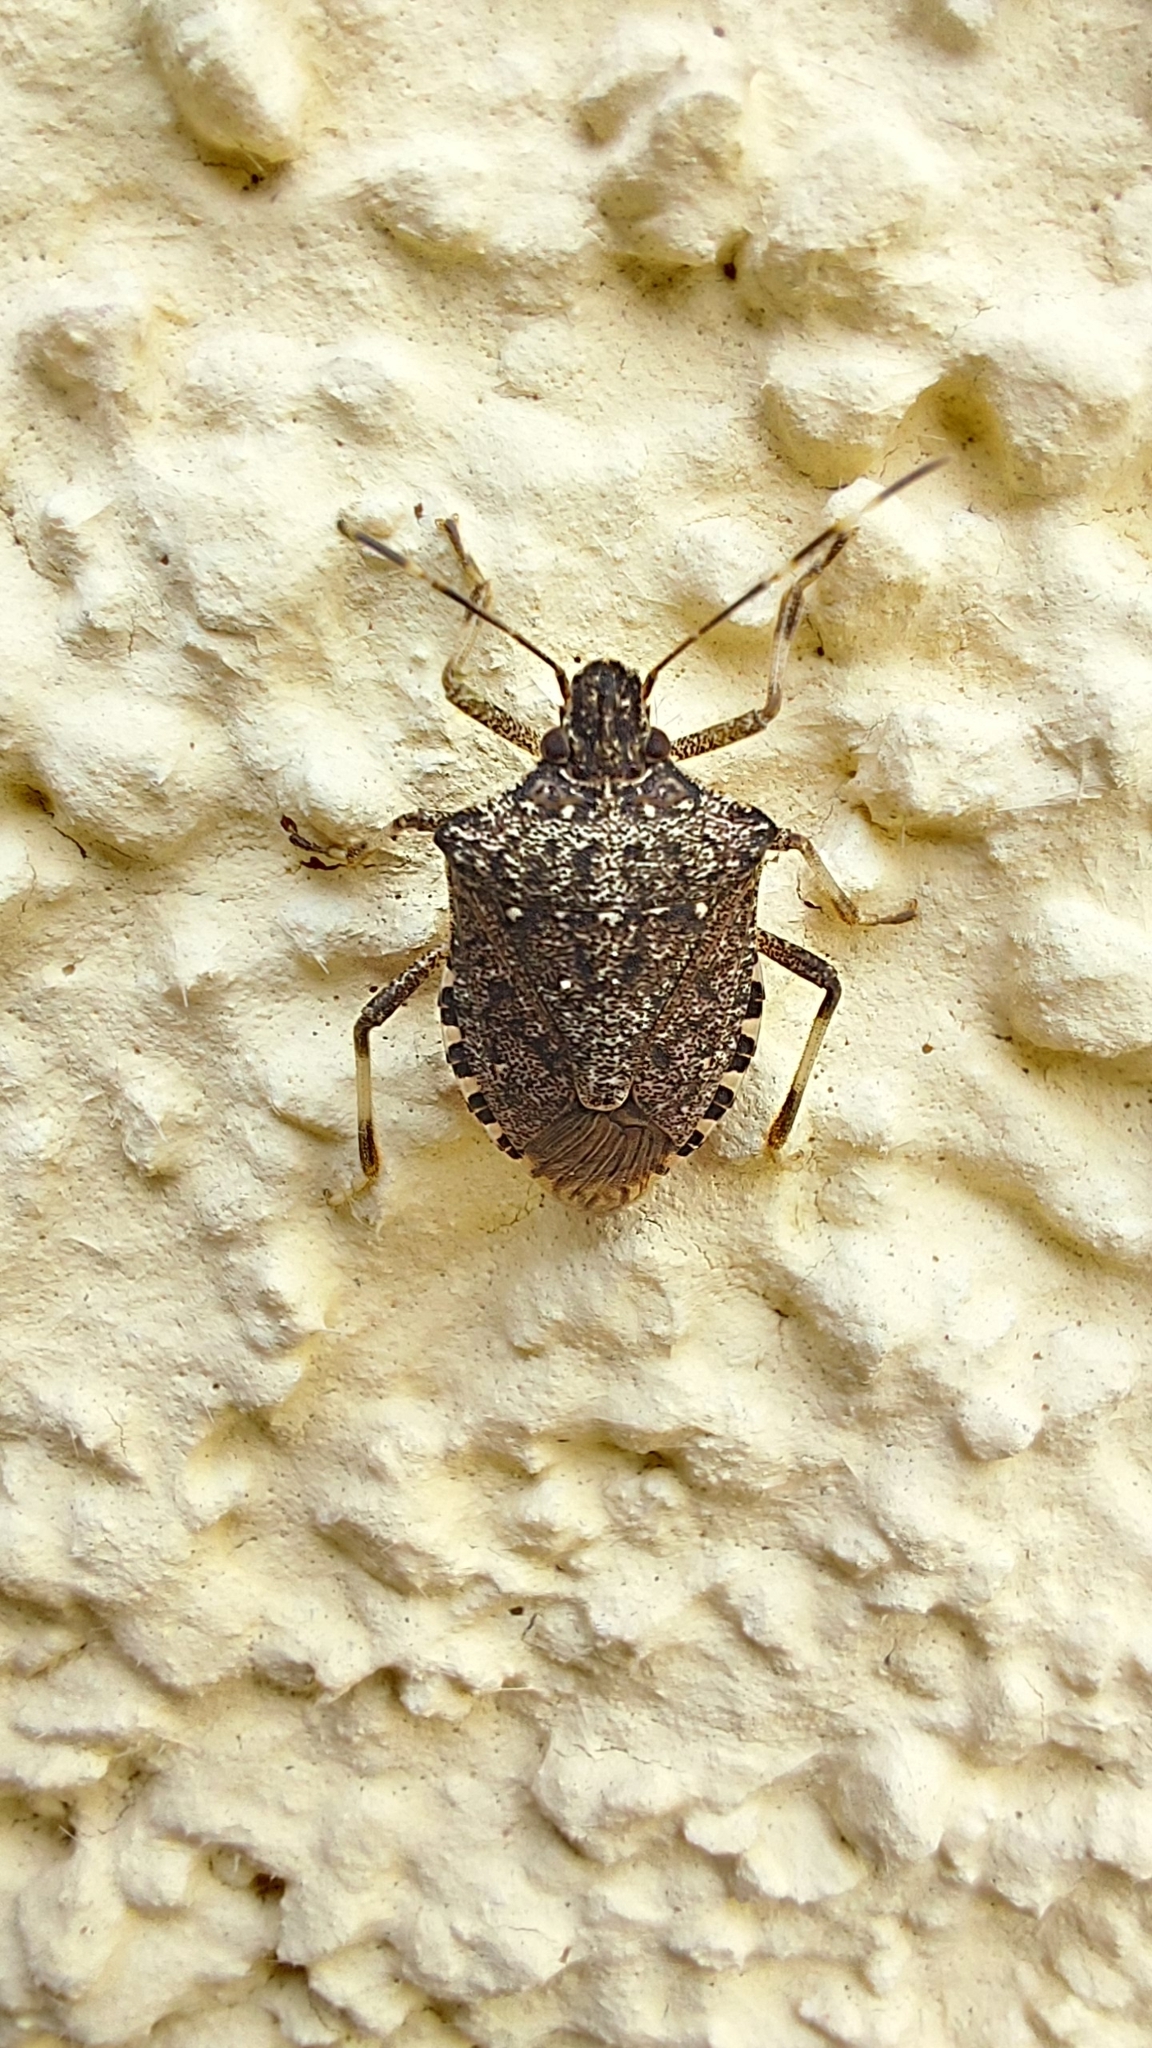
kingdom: Animalia
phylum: Arthropoda
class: Insecta
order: Hemiptera
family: Pentatomidae
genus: Halyomorpha
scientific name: Halyomorpha halys
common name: Brown marmorated stink bug
